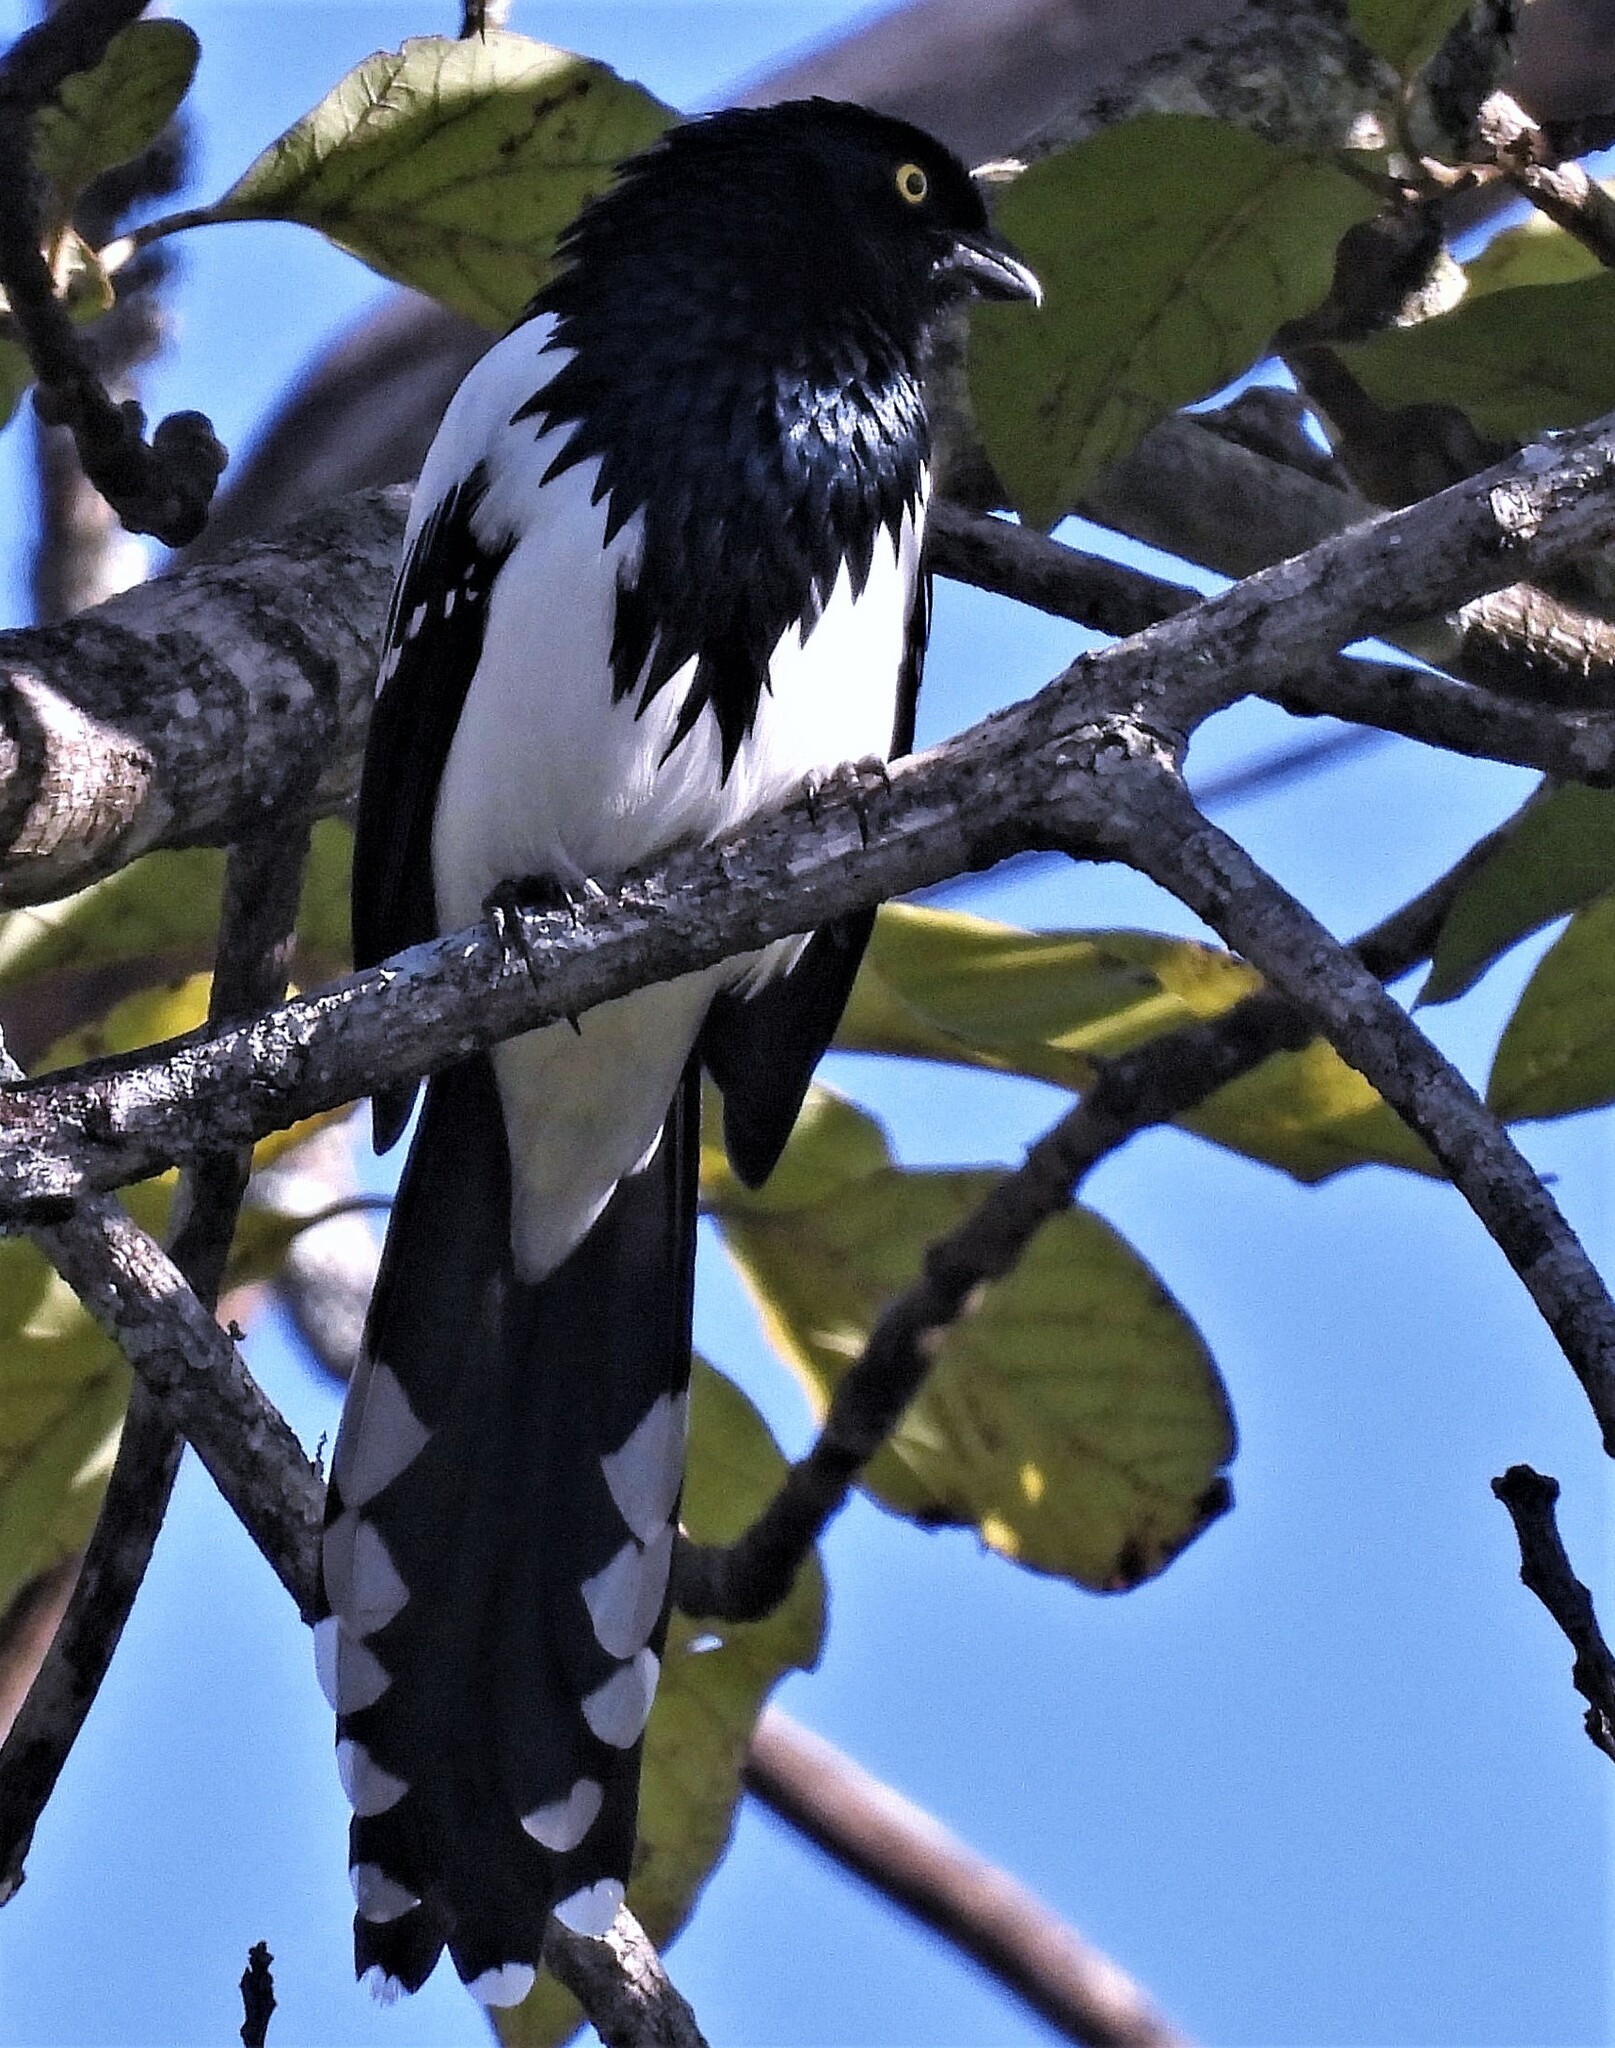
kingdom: Animalia
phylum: Chordata
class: Aves
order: Passeriformes
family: Thraupidae
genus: Cissopis
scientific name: Cissopis leverianus
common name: Magpie tanager
